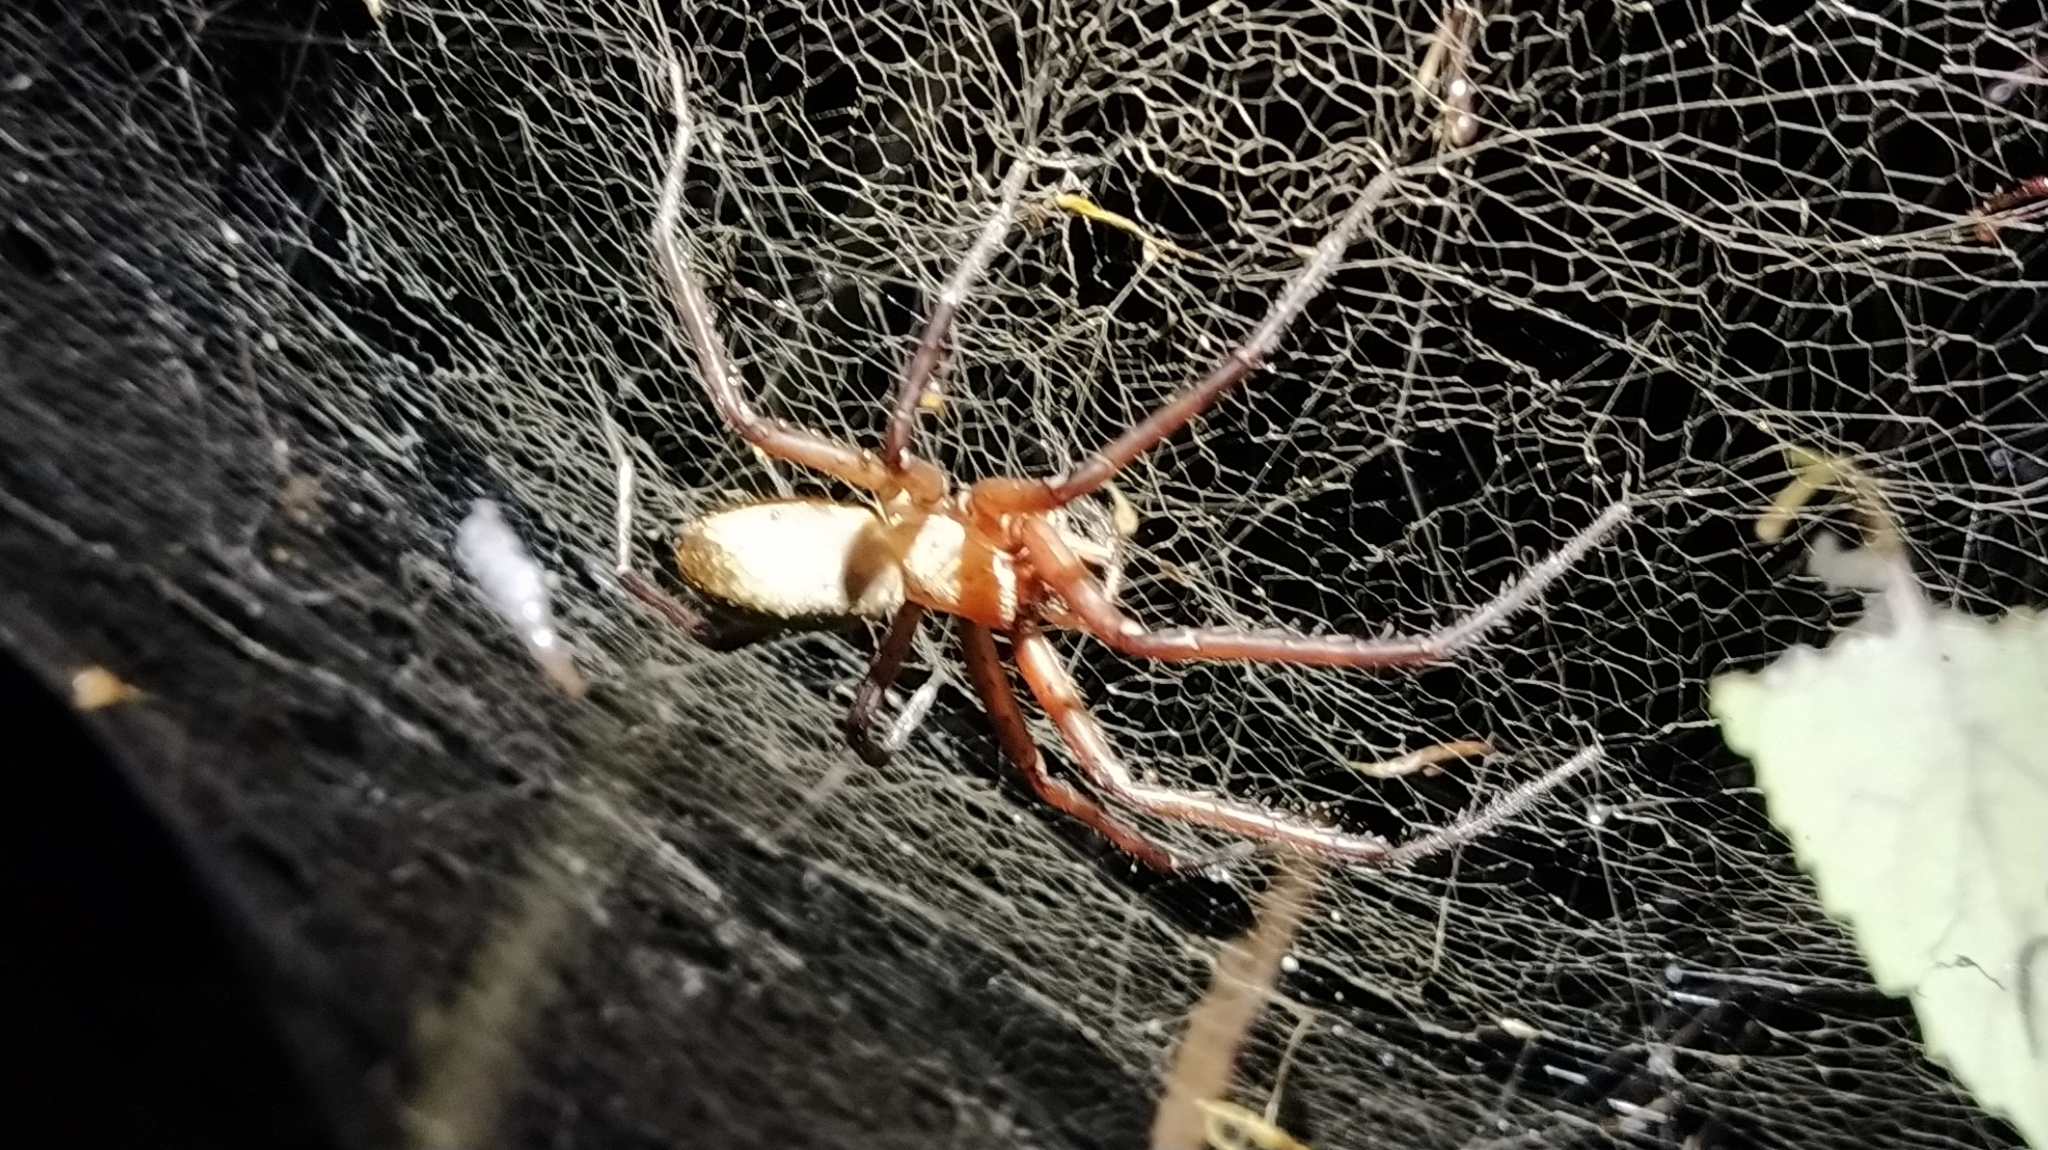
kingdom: Animalia
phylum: Arthropoda
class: Arachnida
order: Araneae
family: Desidae
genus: Cambridgea
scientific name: Cambridgea foliata
